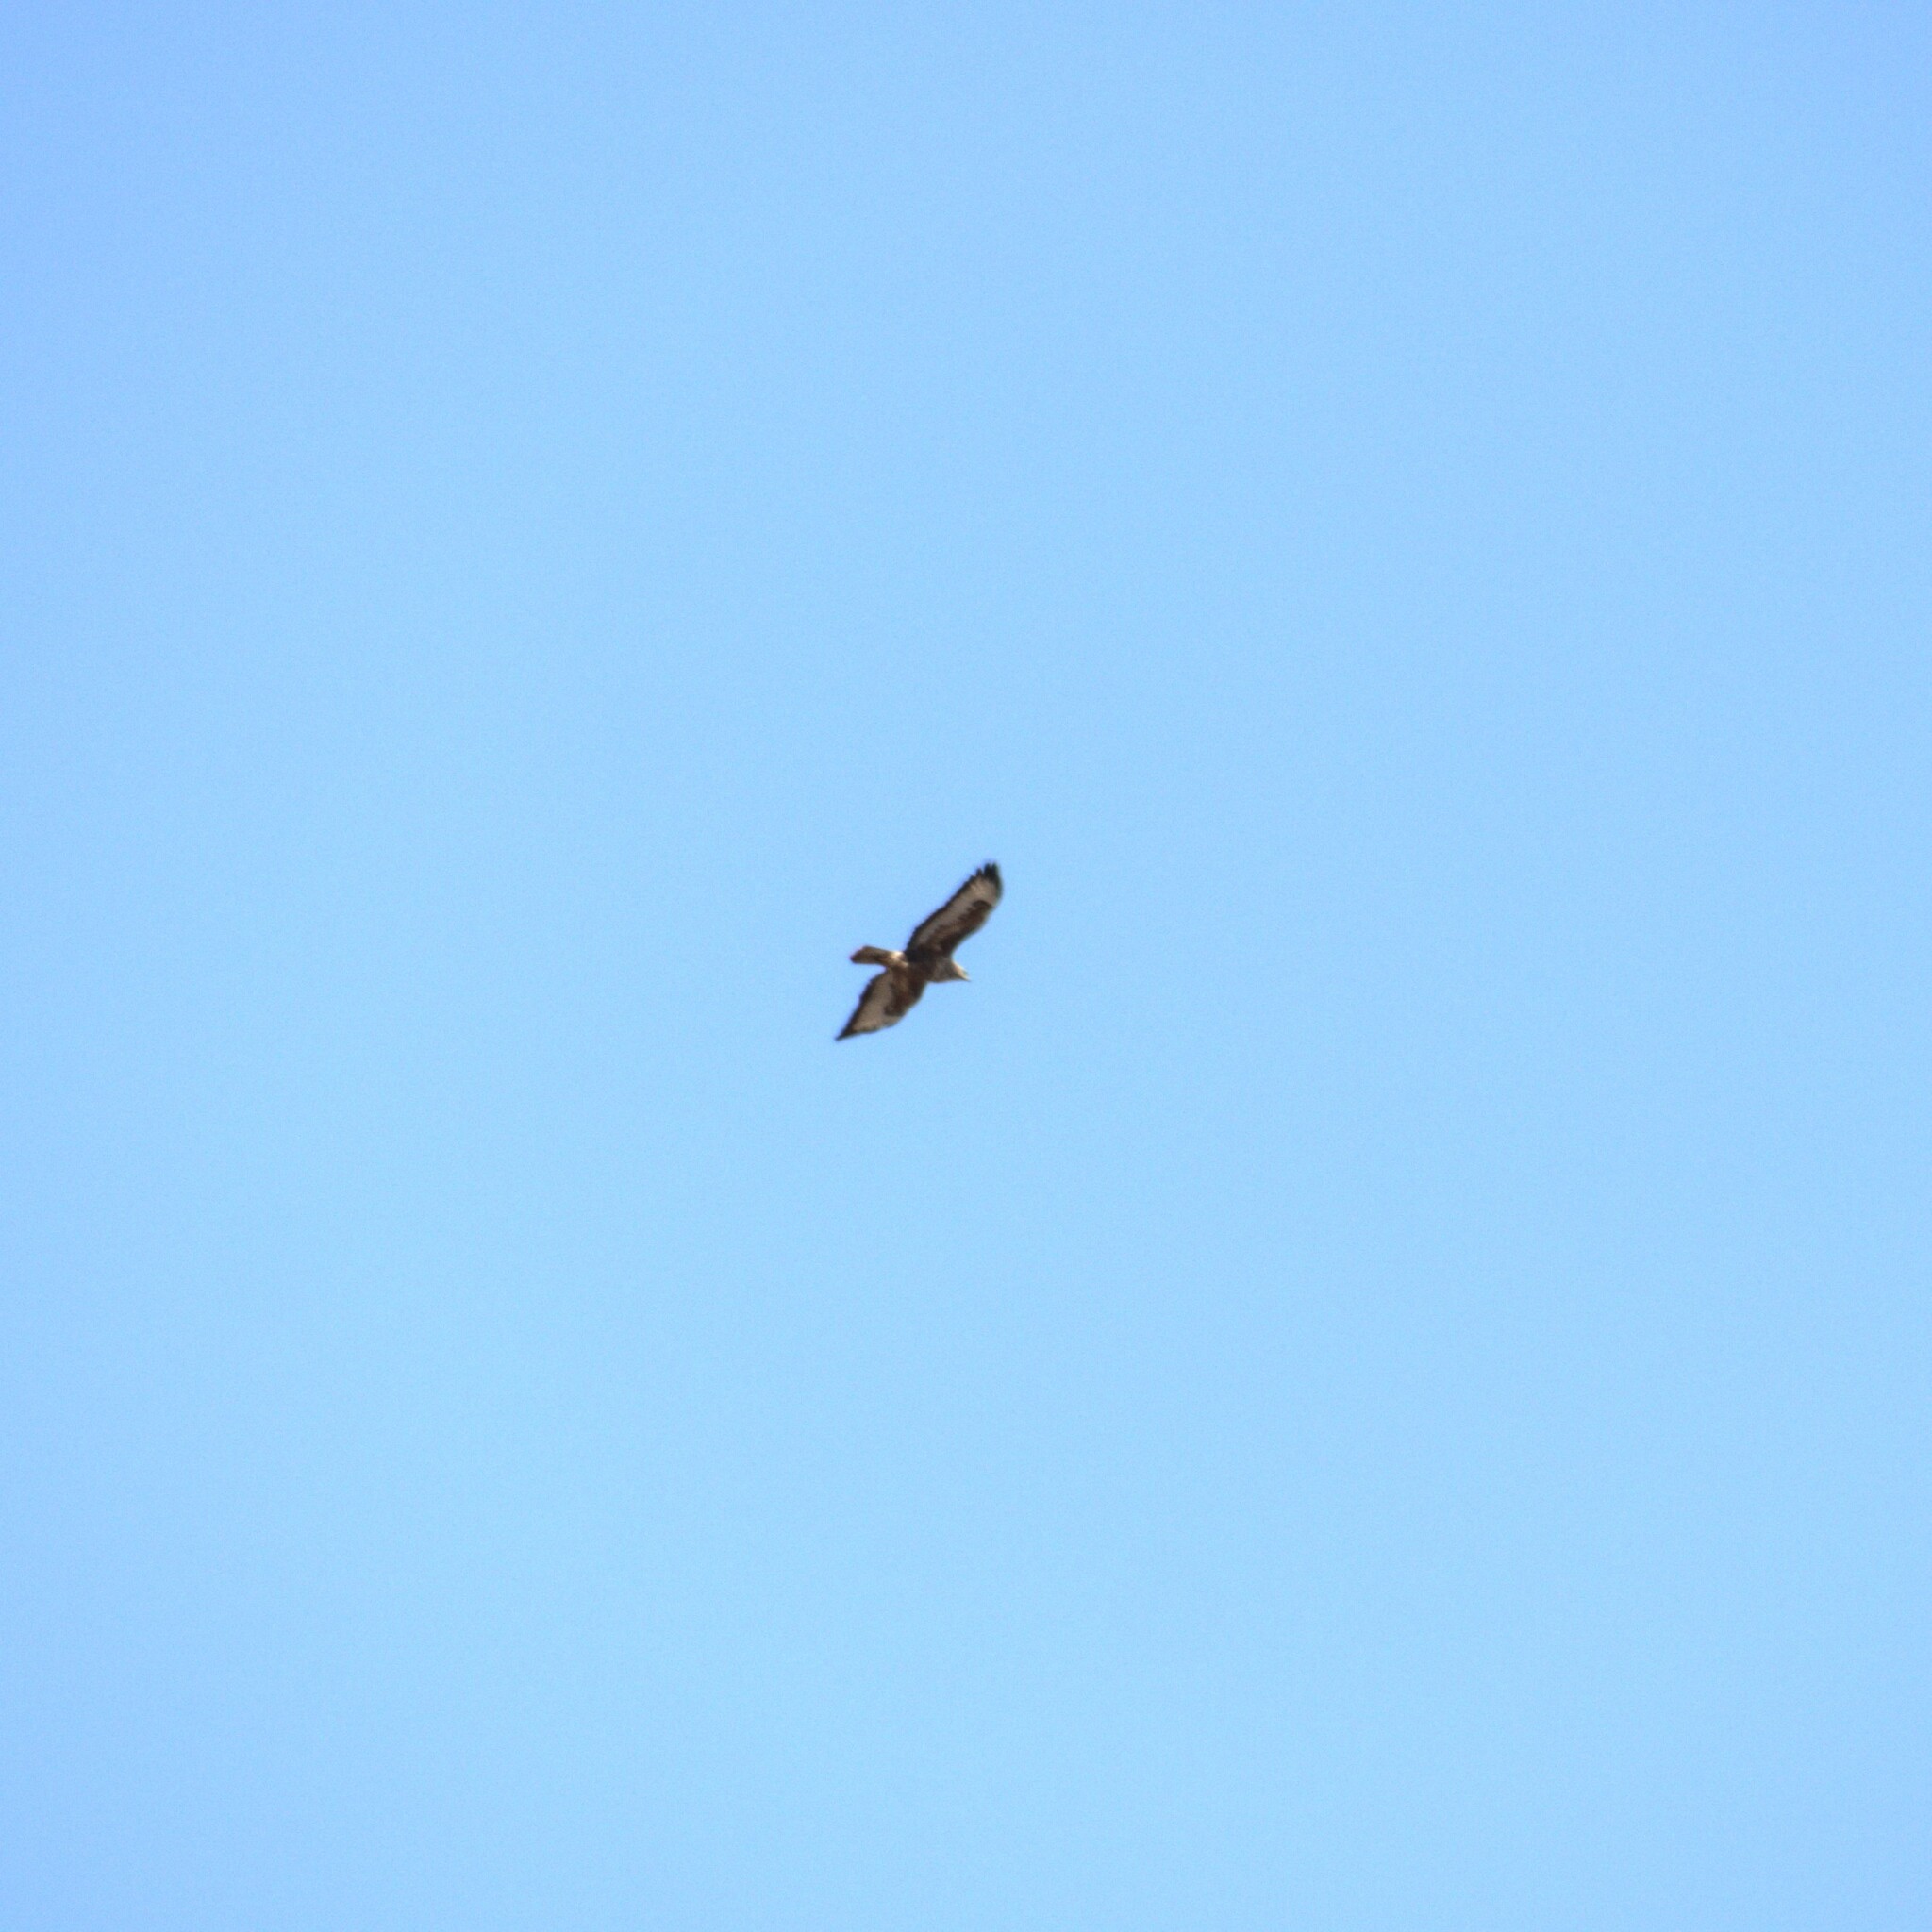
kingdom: Animalia
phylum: Chordata
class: Aves
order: Accipitriformes
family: Accipitridae
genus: Buteo
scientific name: Buteo buteo
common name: Common buzzard
